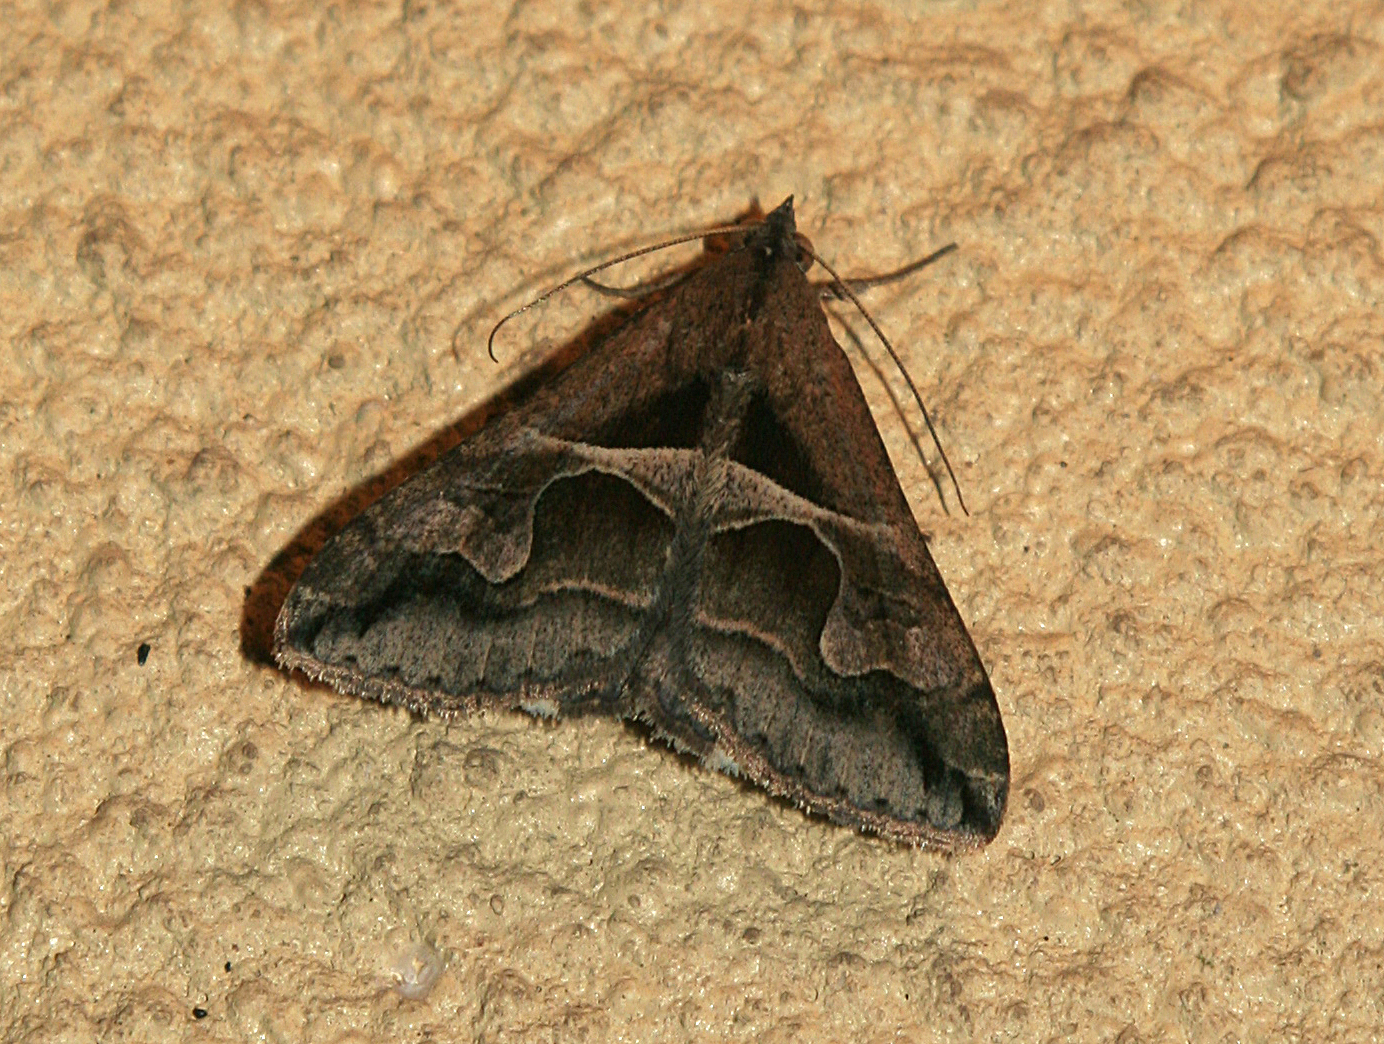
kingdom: Animalia
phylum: Arthropoda
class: Insecta
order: Lepidoptera
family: Erebidae
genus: Melipotis
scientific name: Melipotis cellaris
